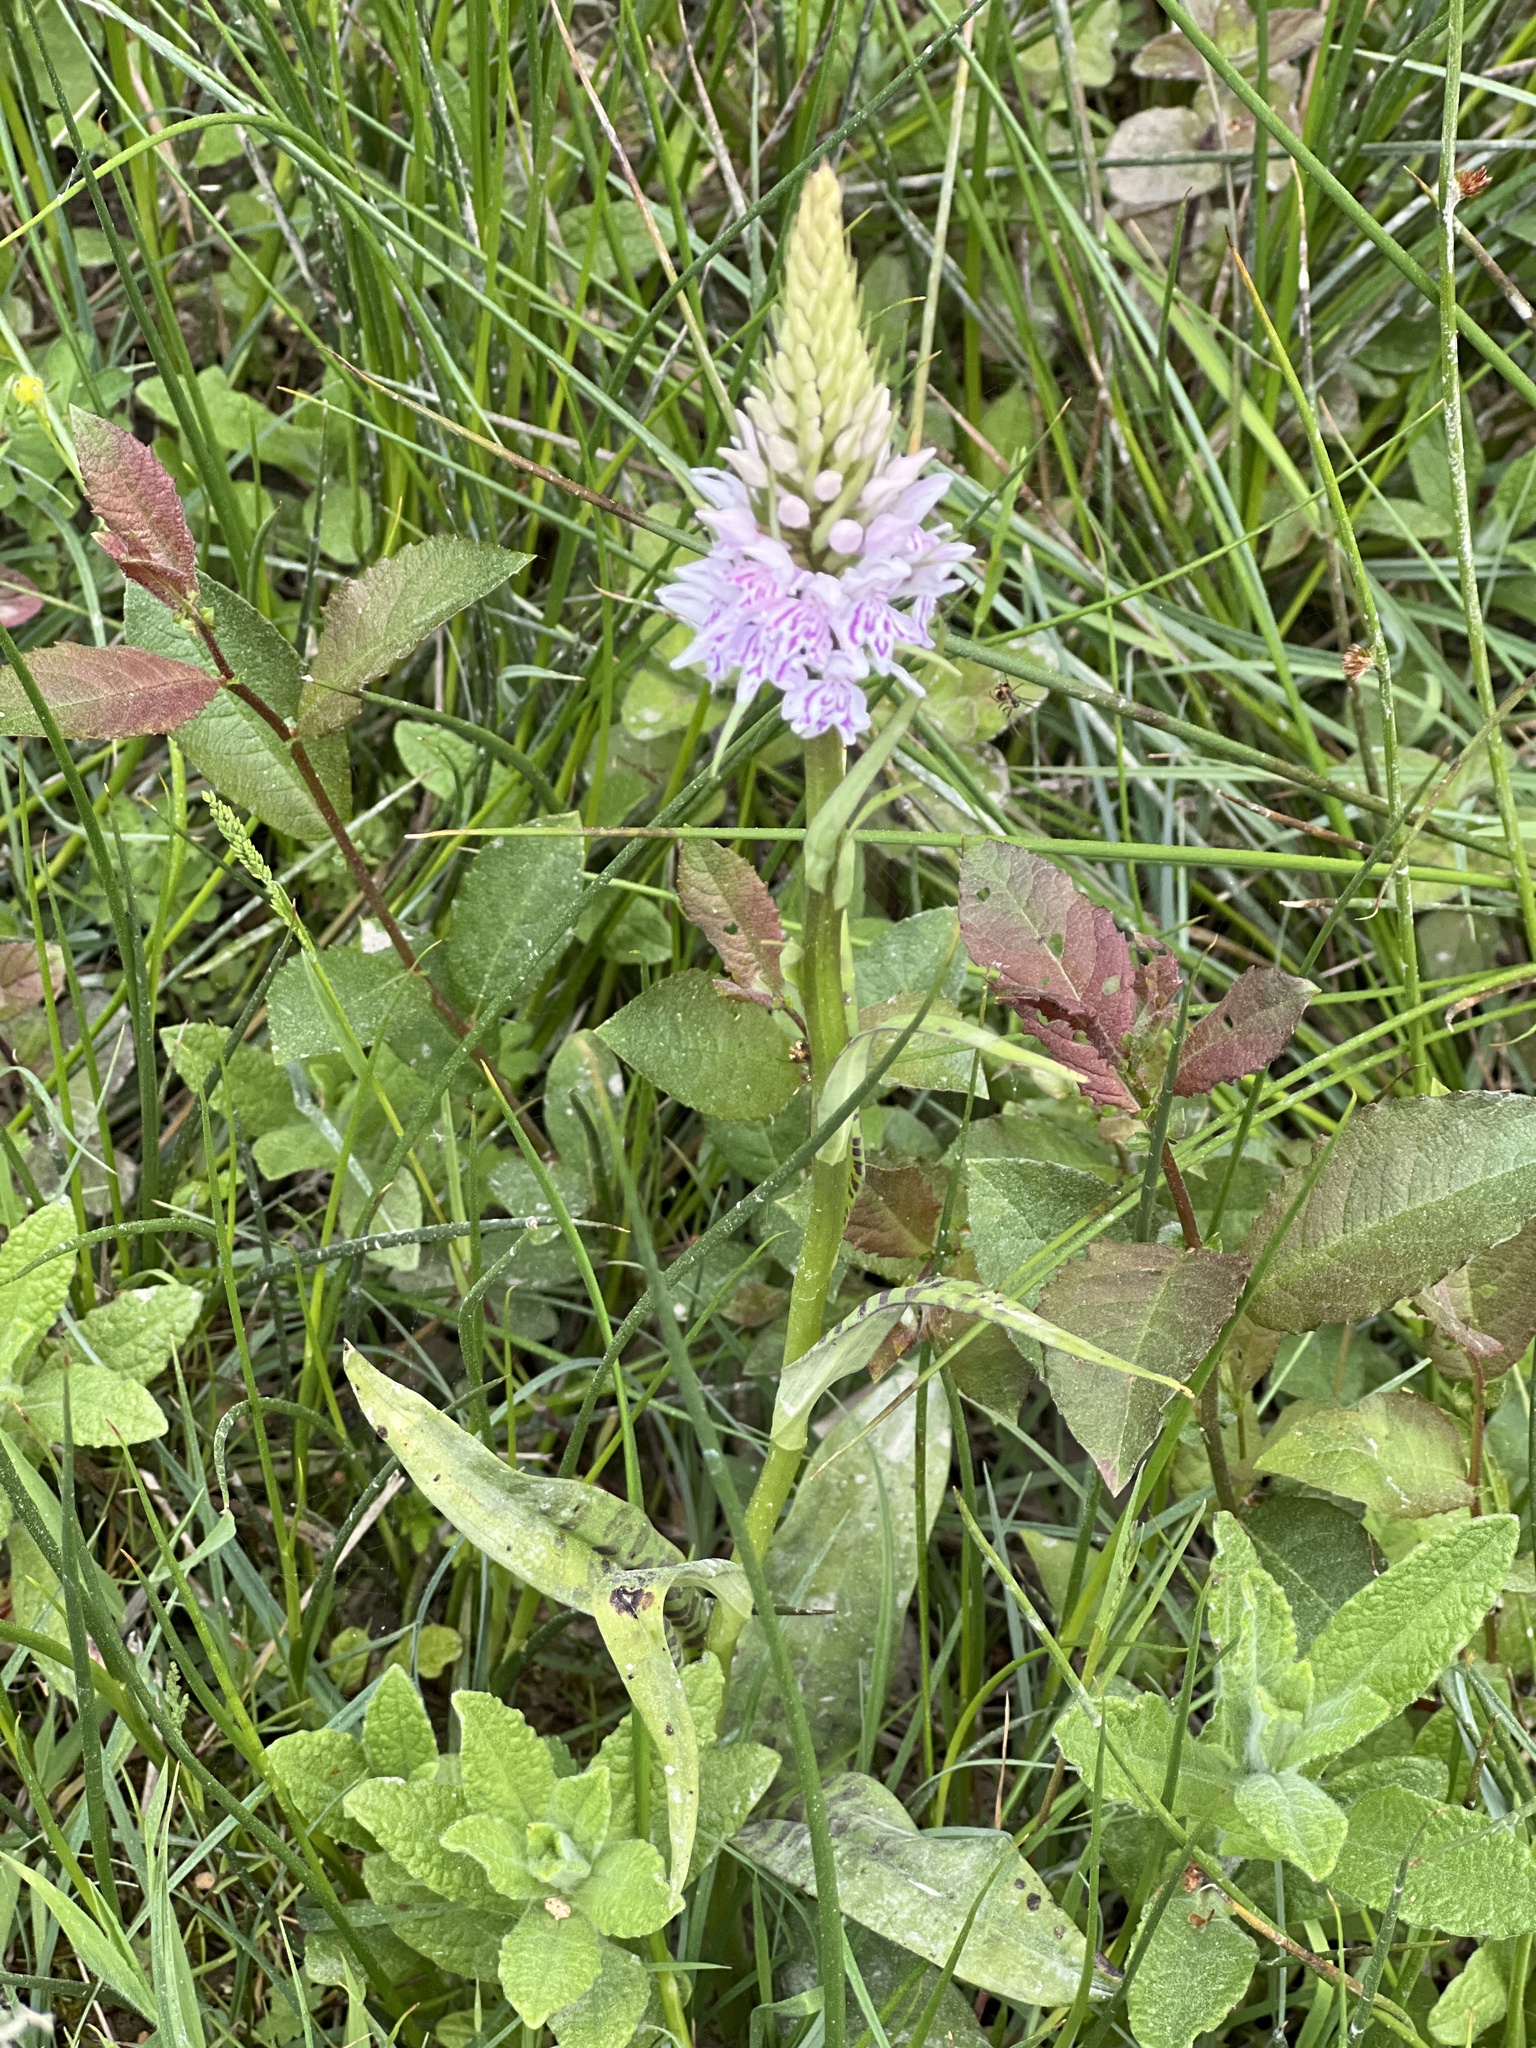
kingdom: Plantae
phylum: Tracheophyta
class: Liliopsida
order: Asparagales
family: Orchidaceae
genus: Dactylorhiza
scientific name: Dactylorhiza maculata
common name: Heath spotted-orchid
